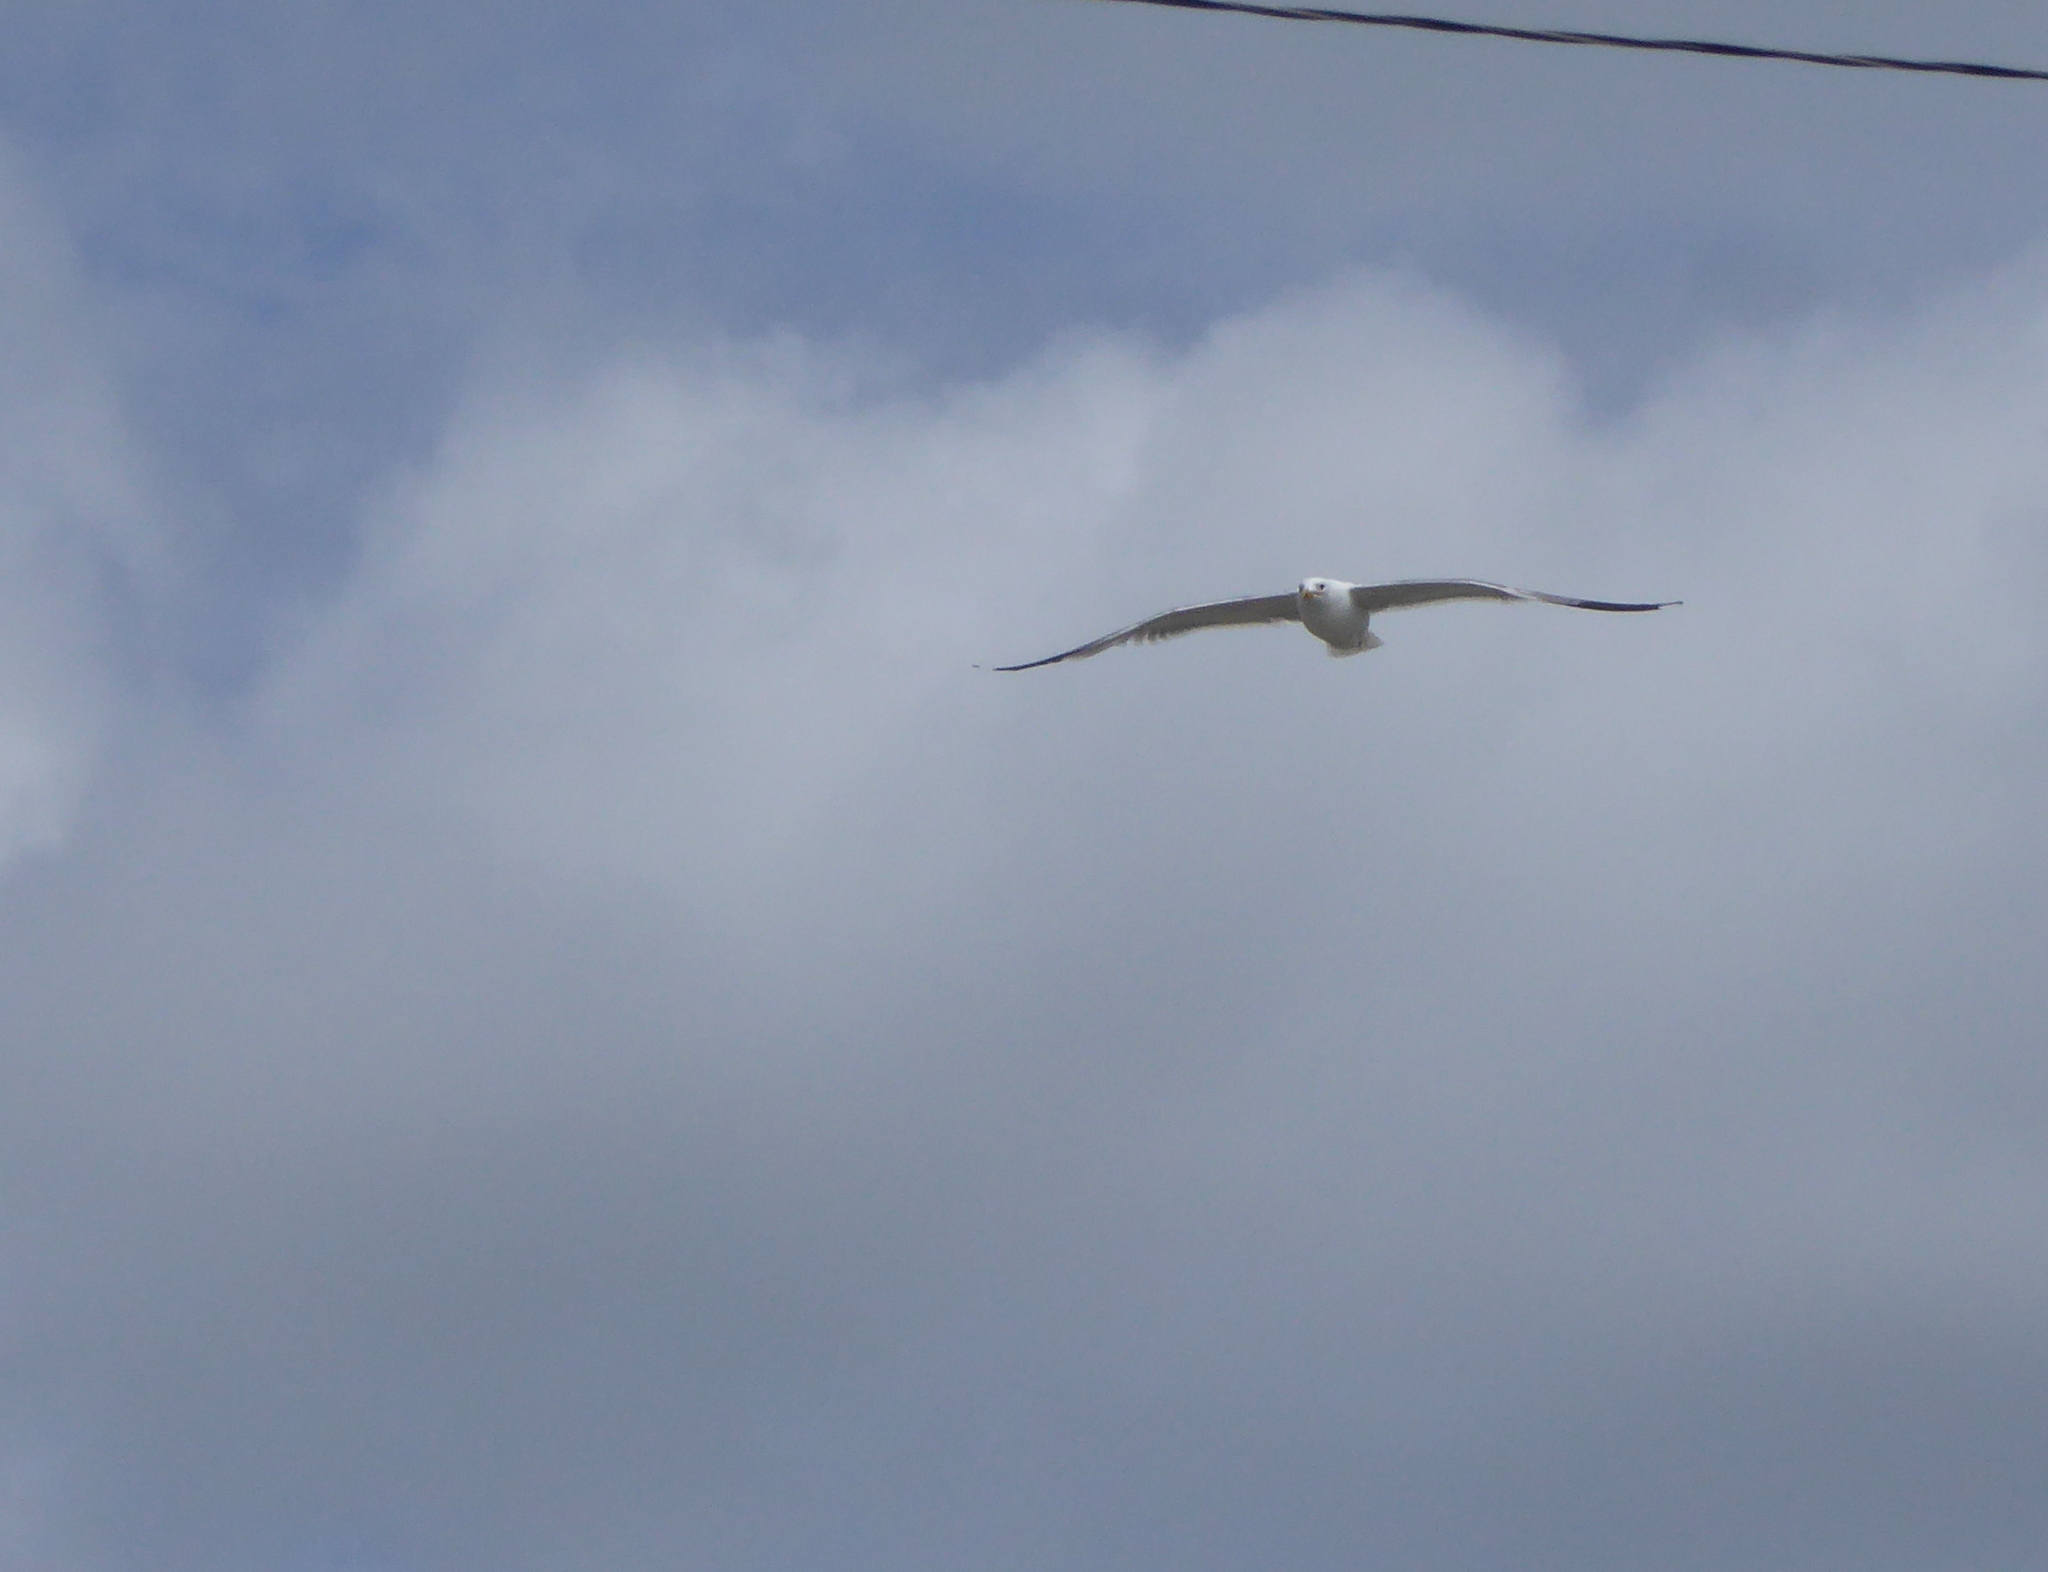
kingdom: Animalia
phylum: Chordata
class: Aves
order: Charadriiformes
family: Laridae
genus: Larus
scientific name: Larus californicus
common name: California gull
